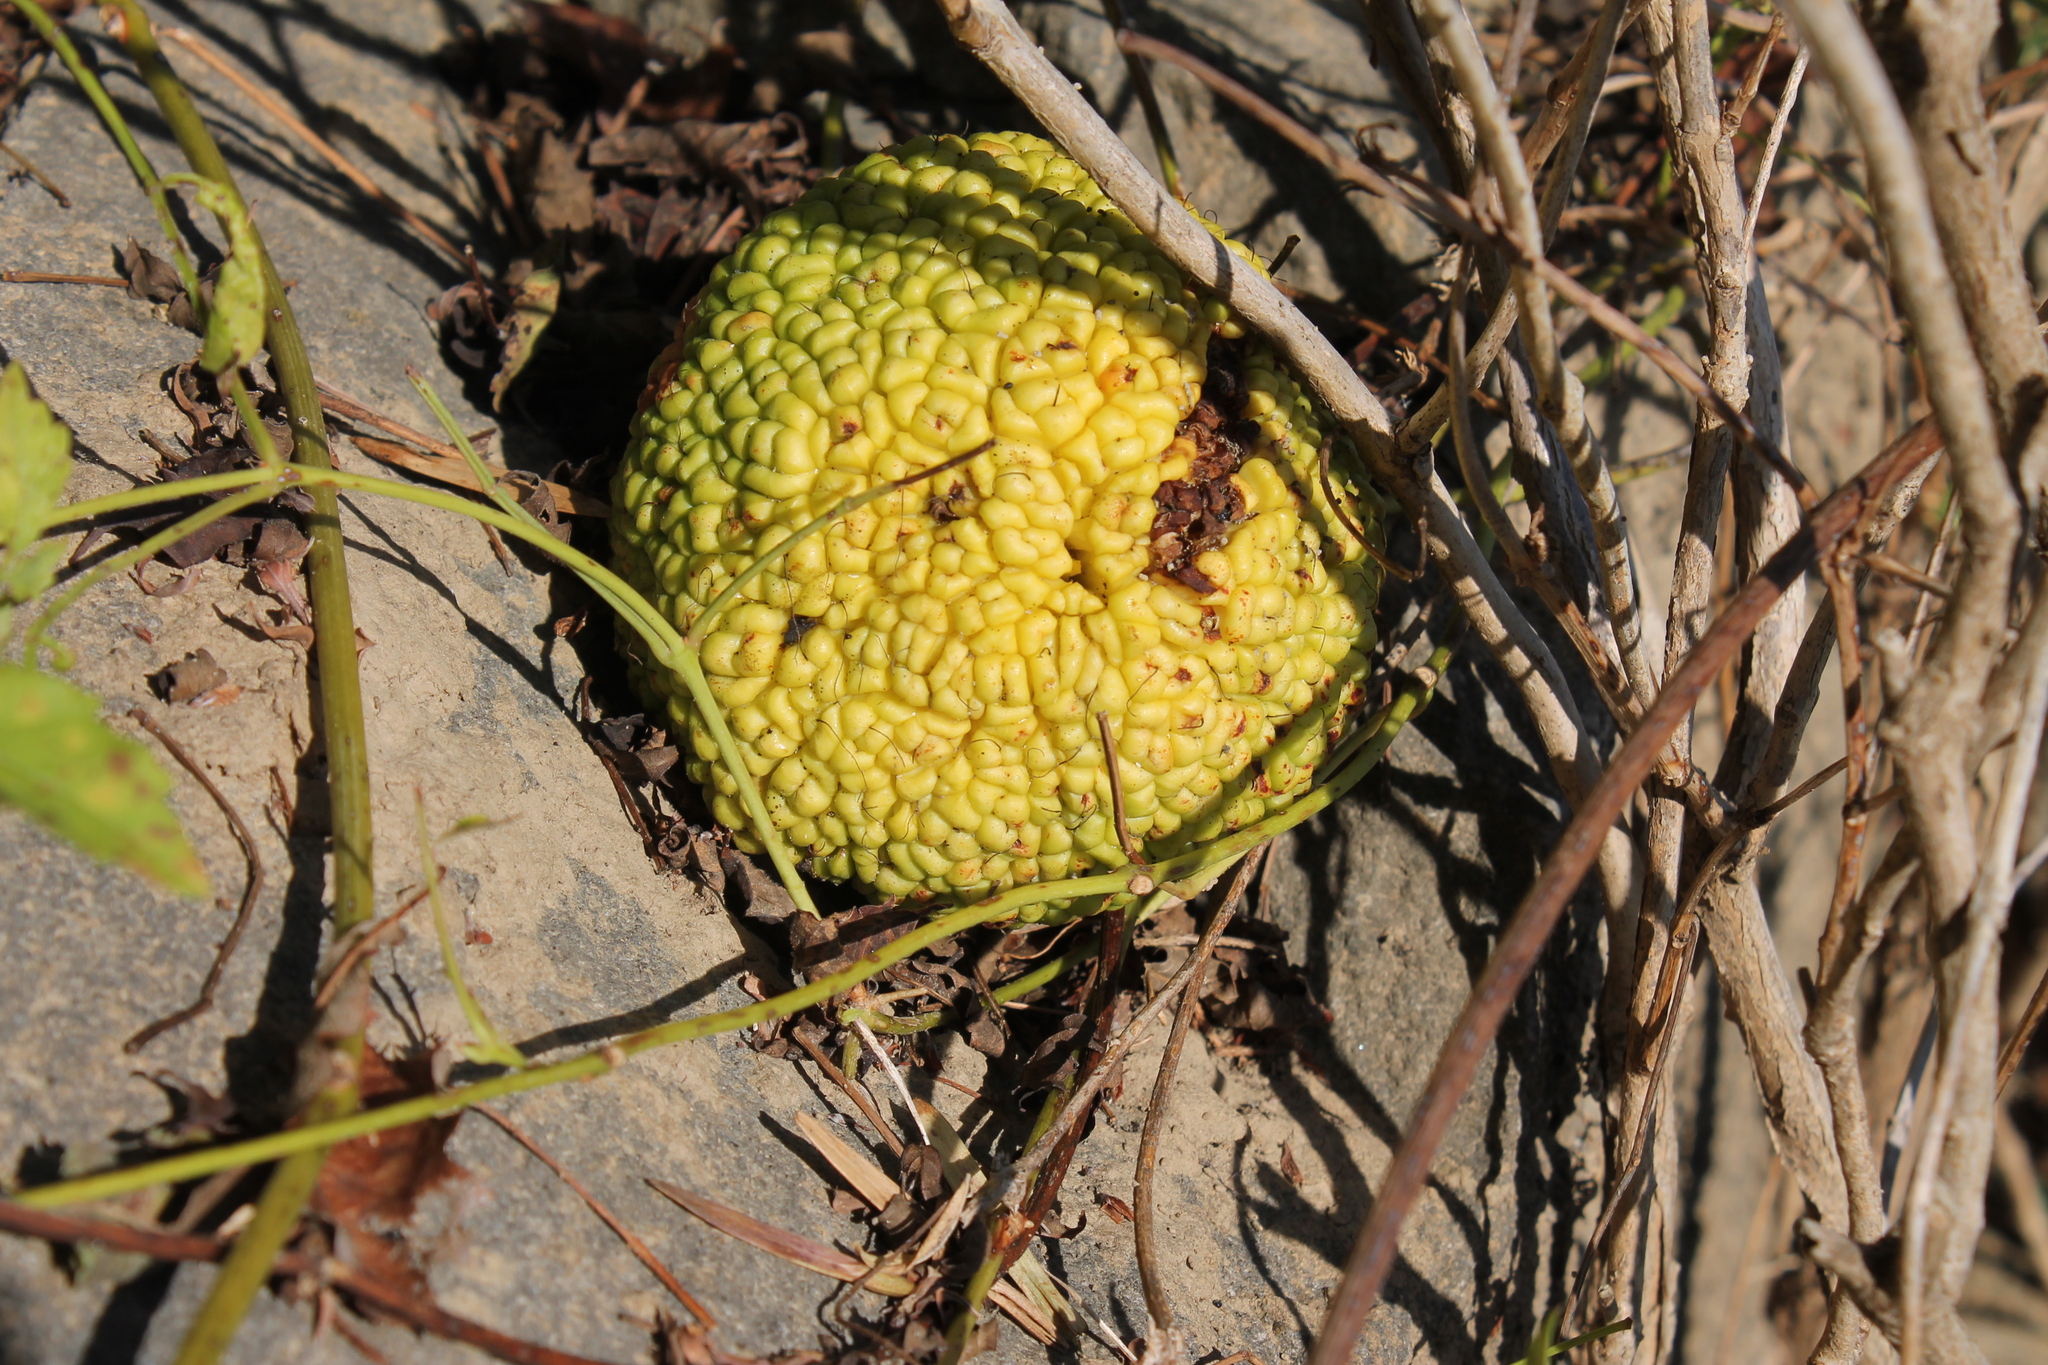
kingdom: Plantae
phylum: Tracheophyta
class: Magnoliopsida
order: Rosales
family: Moraceae
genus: Maclura
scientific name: Maclura pomifera
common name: Osage-orange
